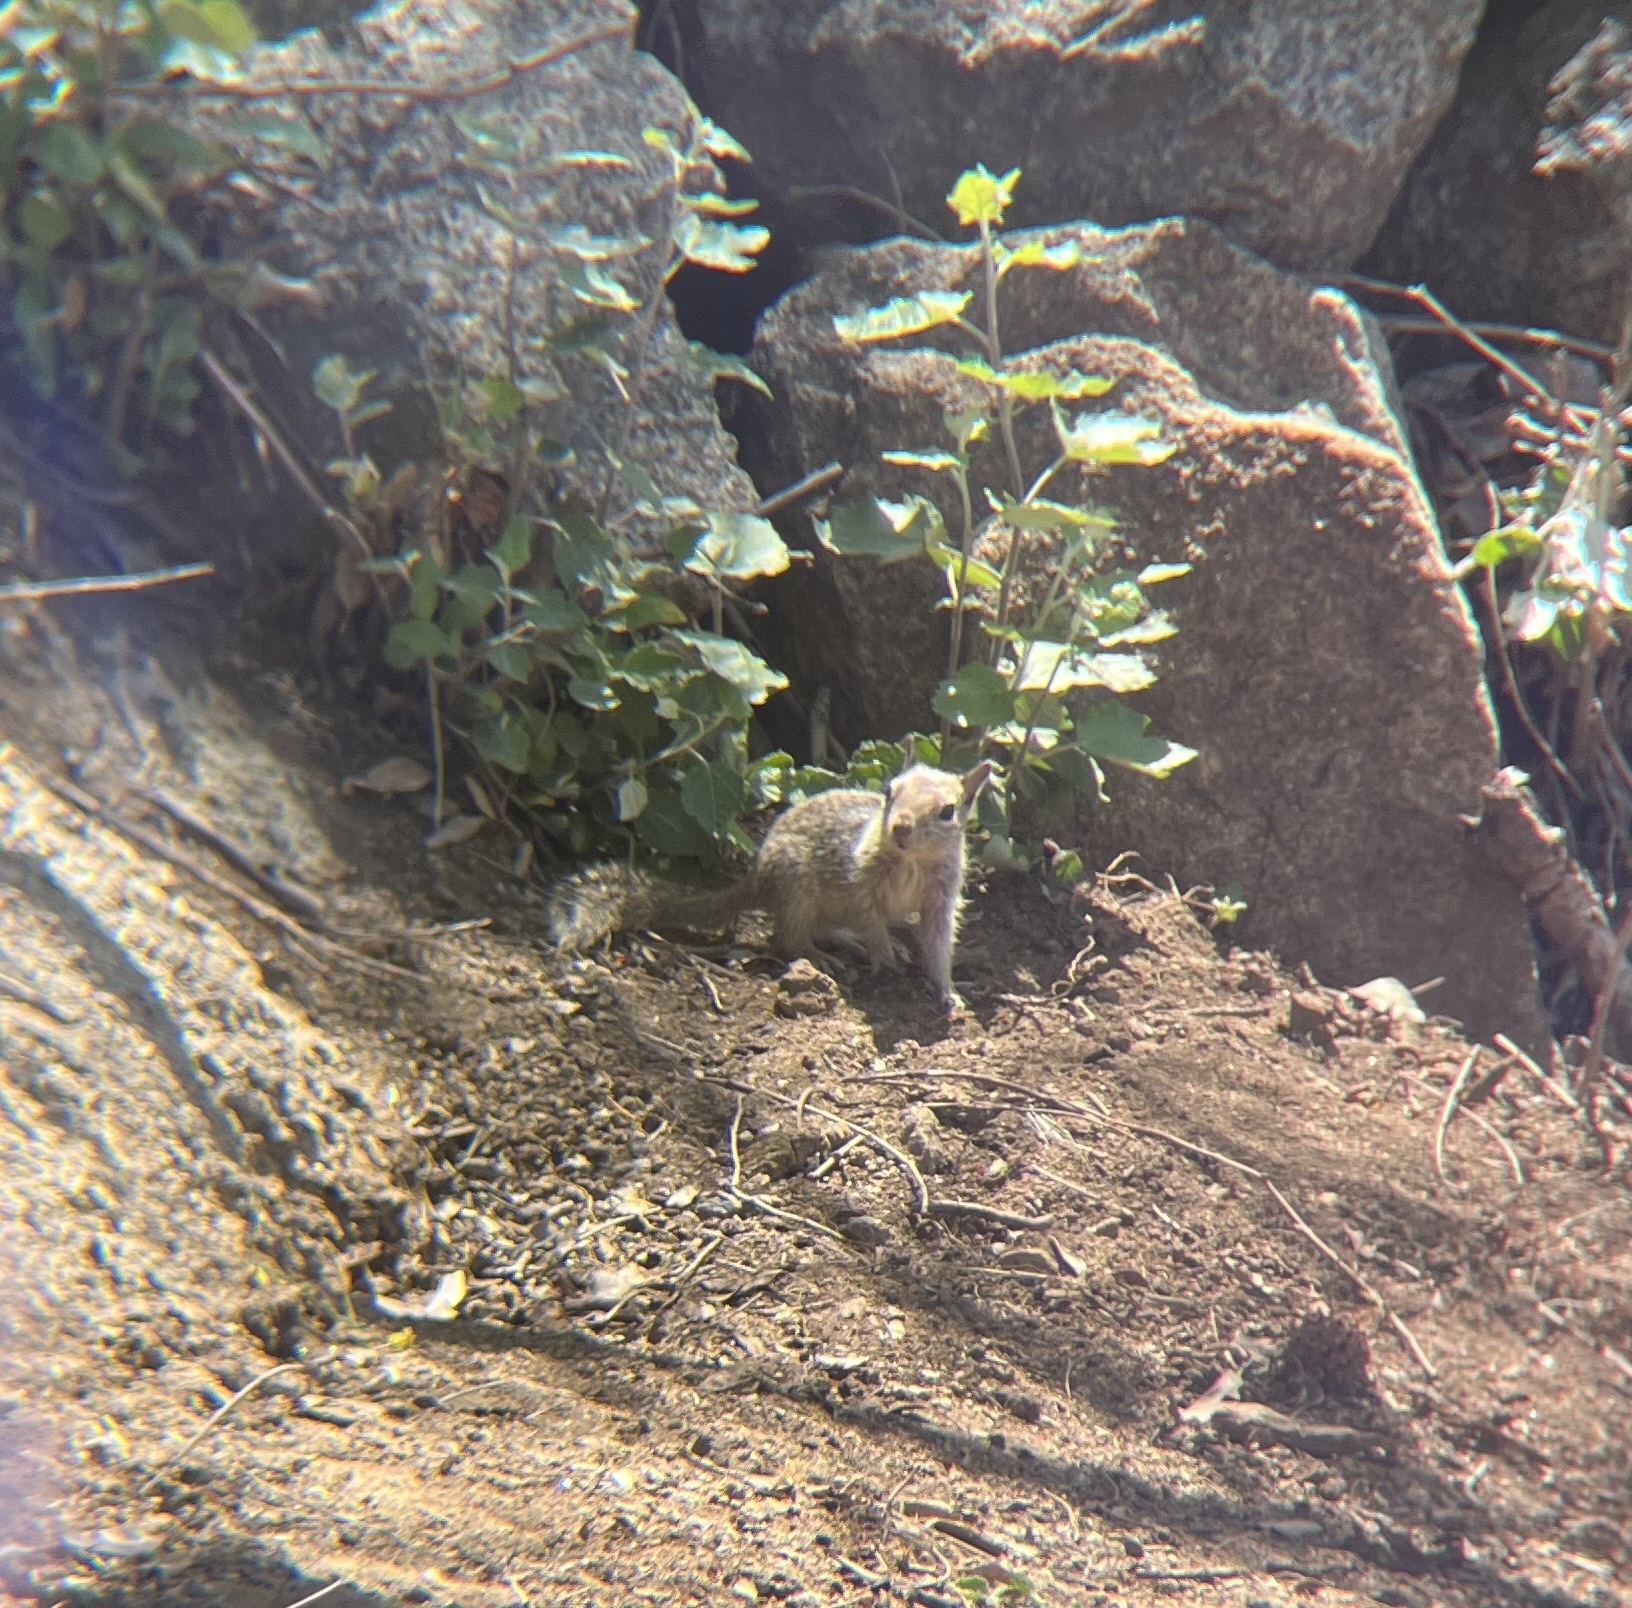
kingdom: Animalia
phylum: Chordata
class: Mammalia
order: Rodentia
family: Sciuridae
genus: Otospermophilus
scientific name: Otospermophilus beecheyi
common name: California ground squirrel
